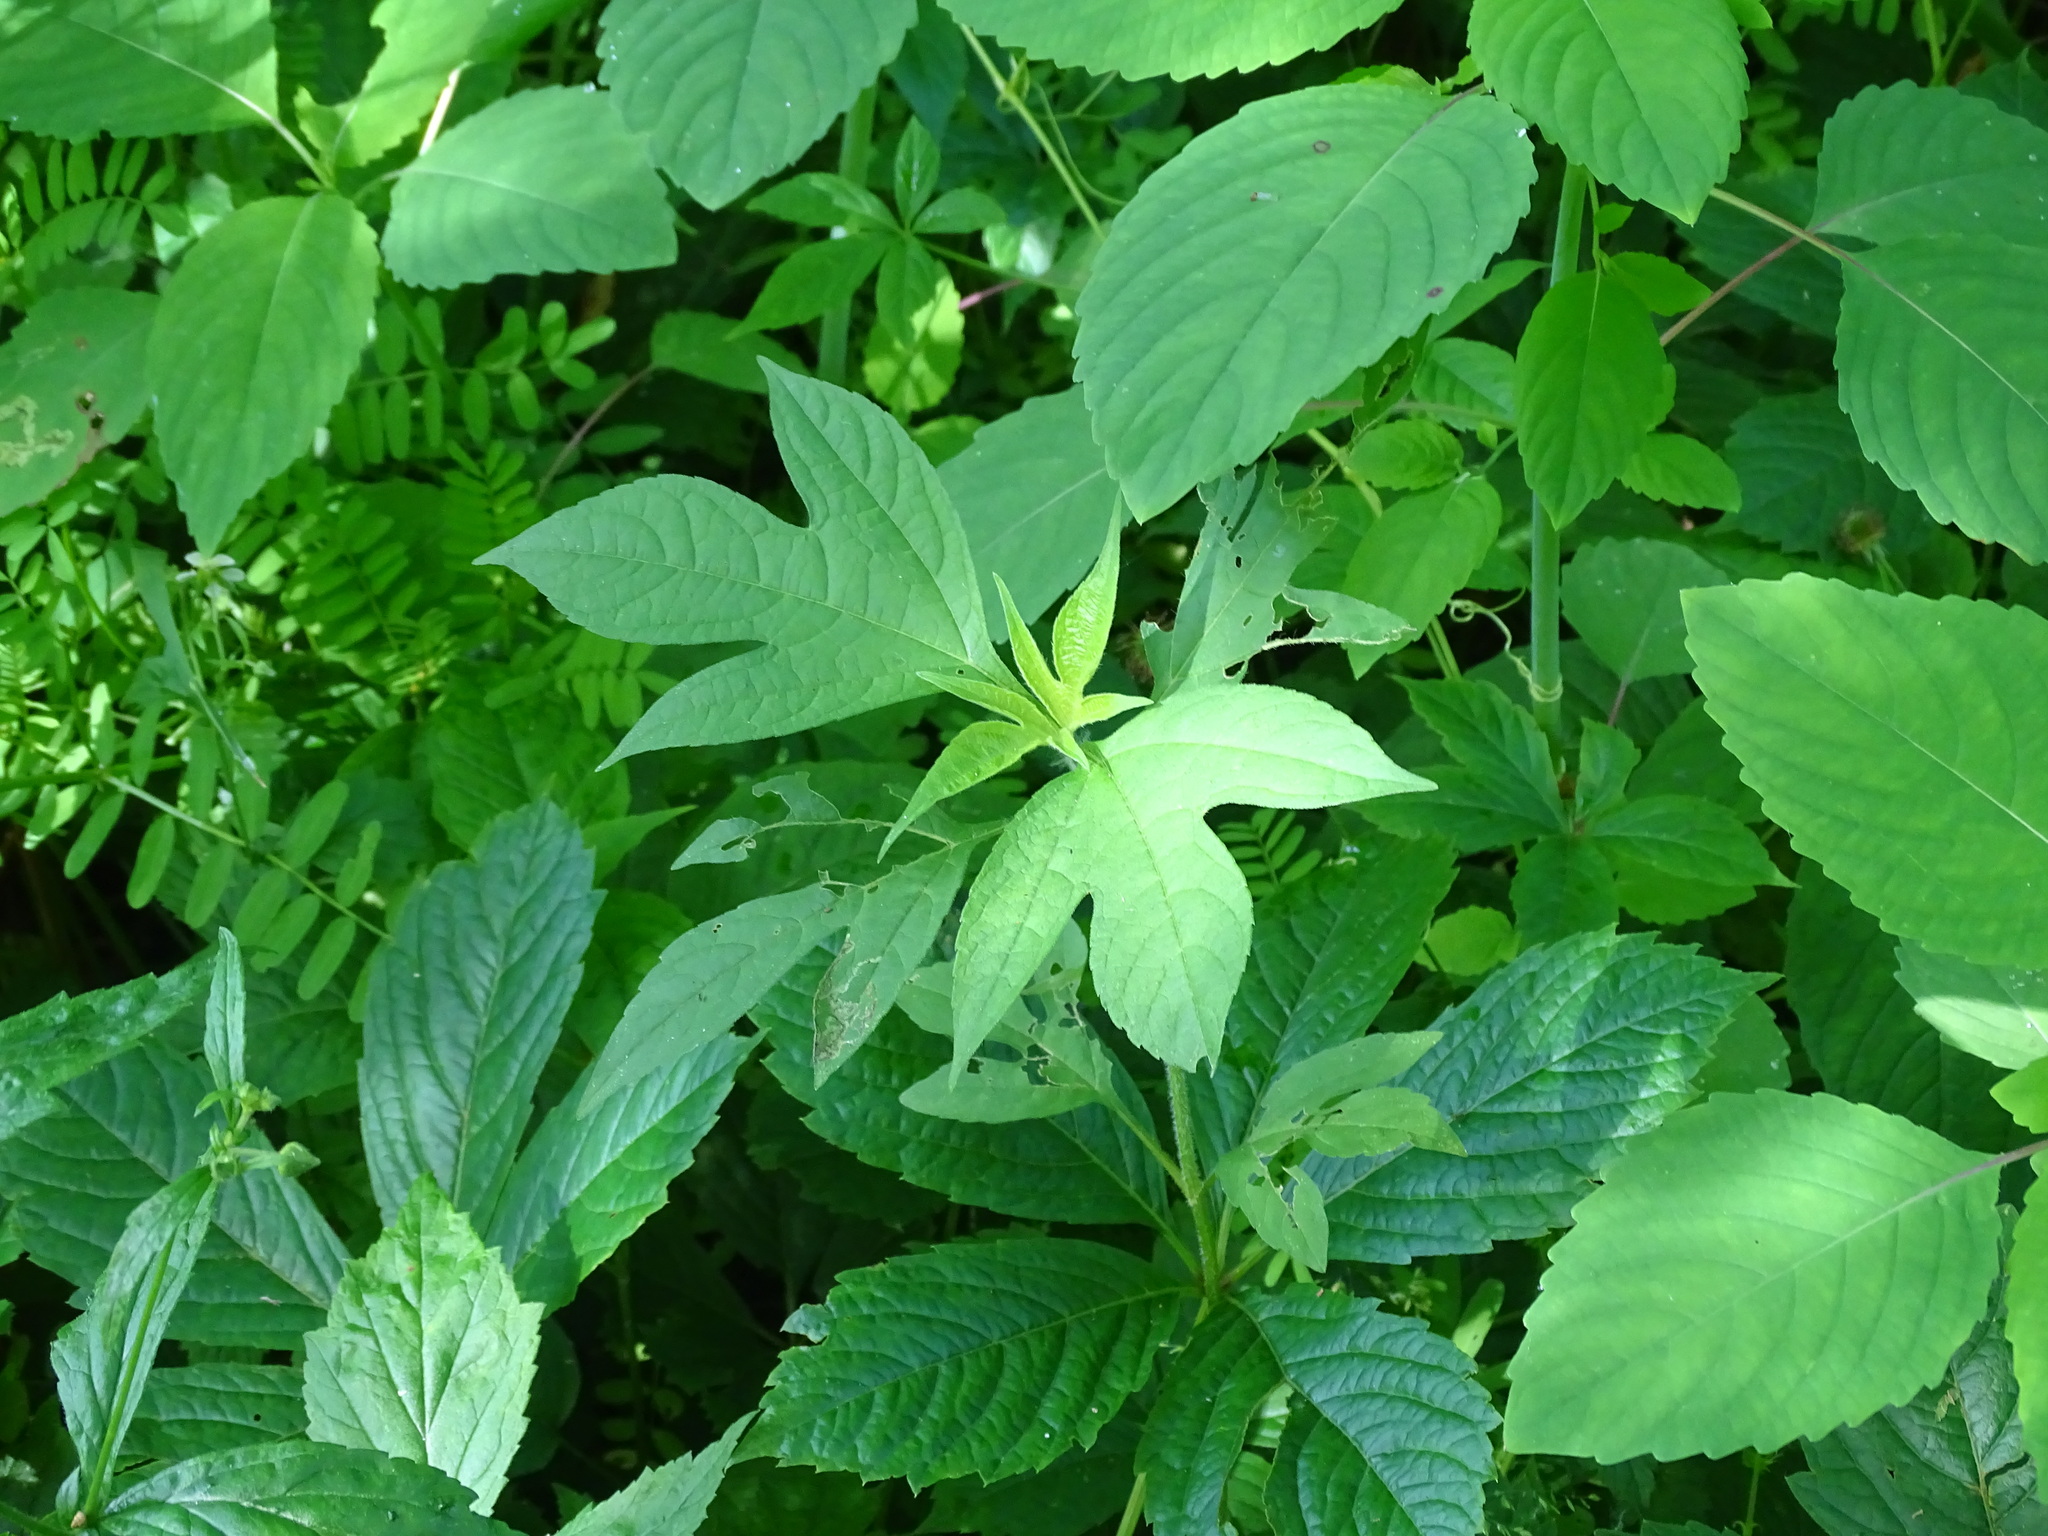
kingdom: Plantae
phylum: Tracheophyta
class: Magnoliopsida
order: Asterales
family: Asteraceae
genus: Ambrosia
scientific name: Ambrosia trifida
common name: Giant ragweed
